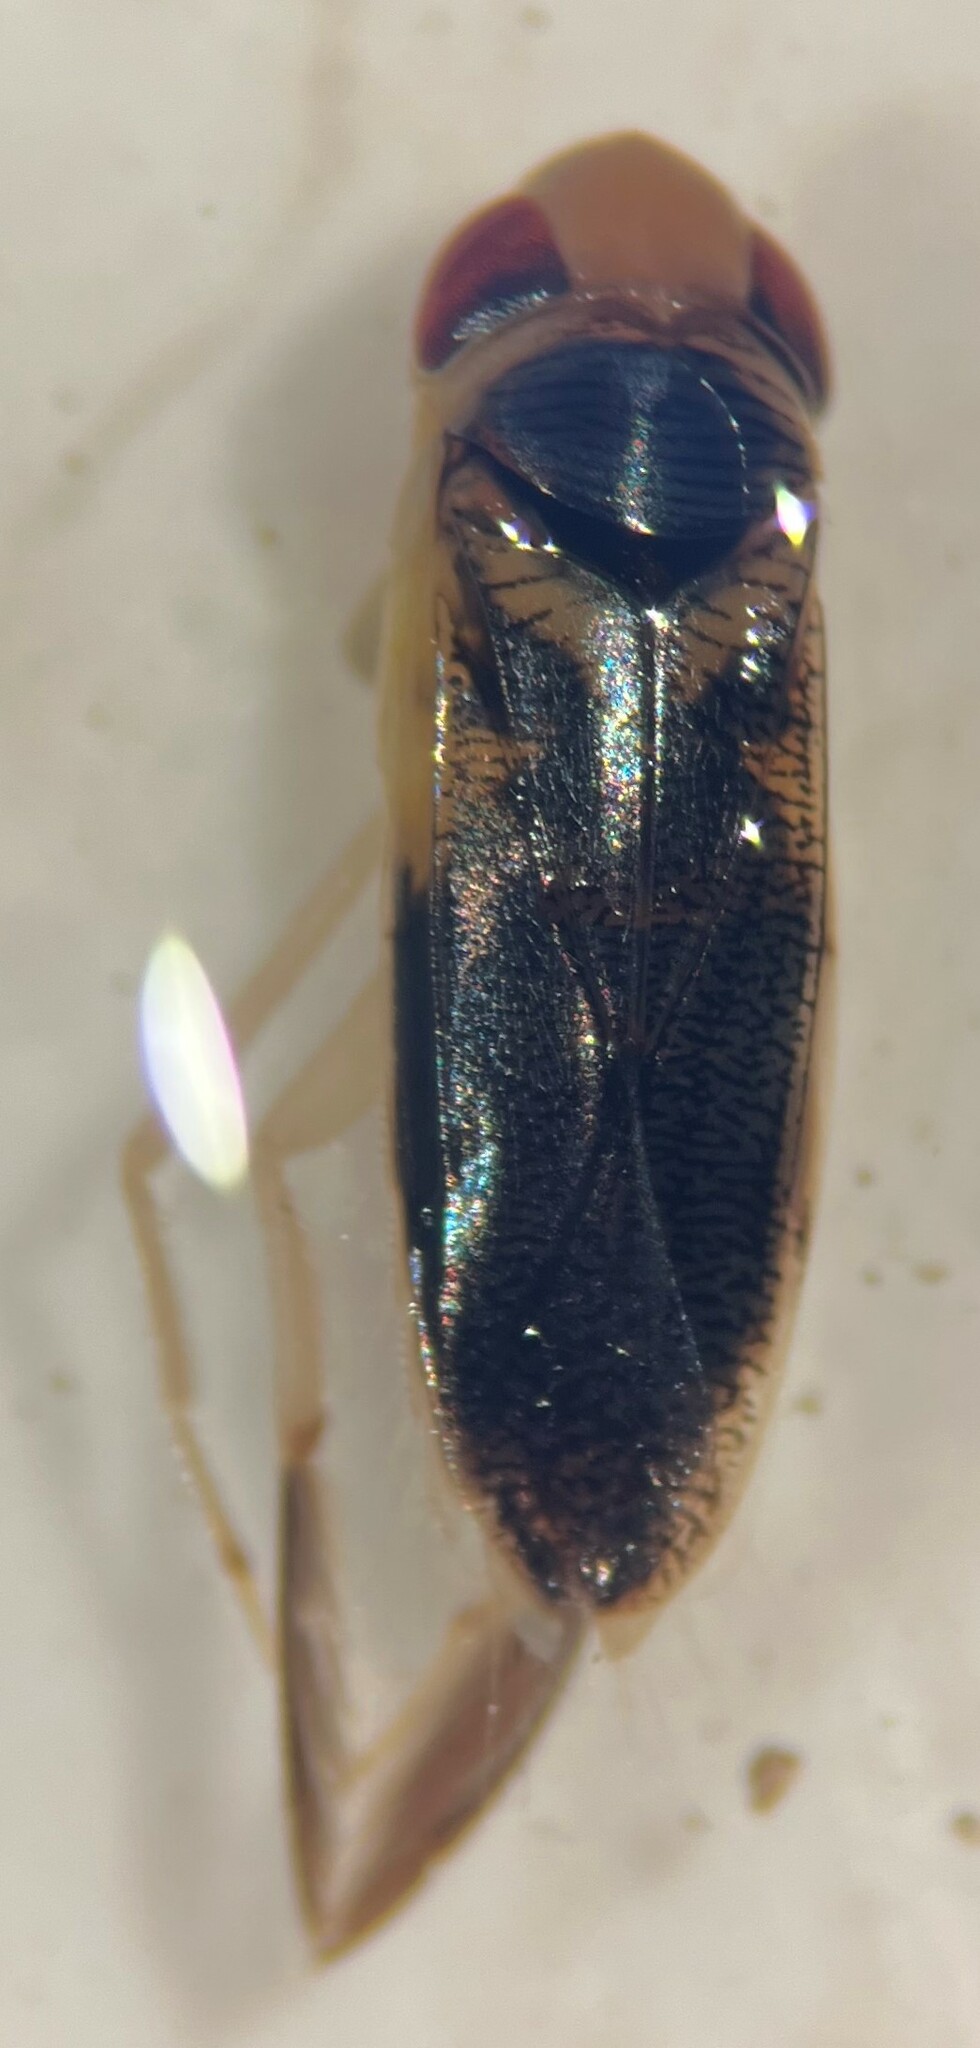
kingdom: Animalia
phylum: Arthropoda
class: Insecta
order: Hemiptera
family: Corixidae
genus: Corisella
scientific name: Corisella tarsalis
